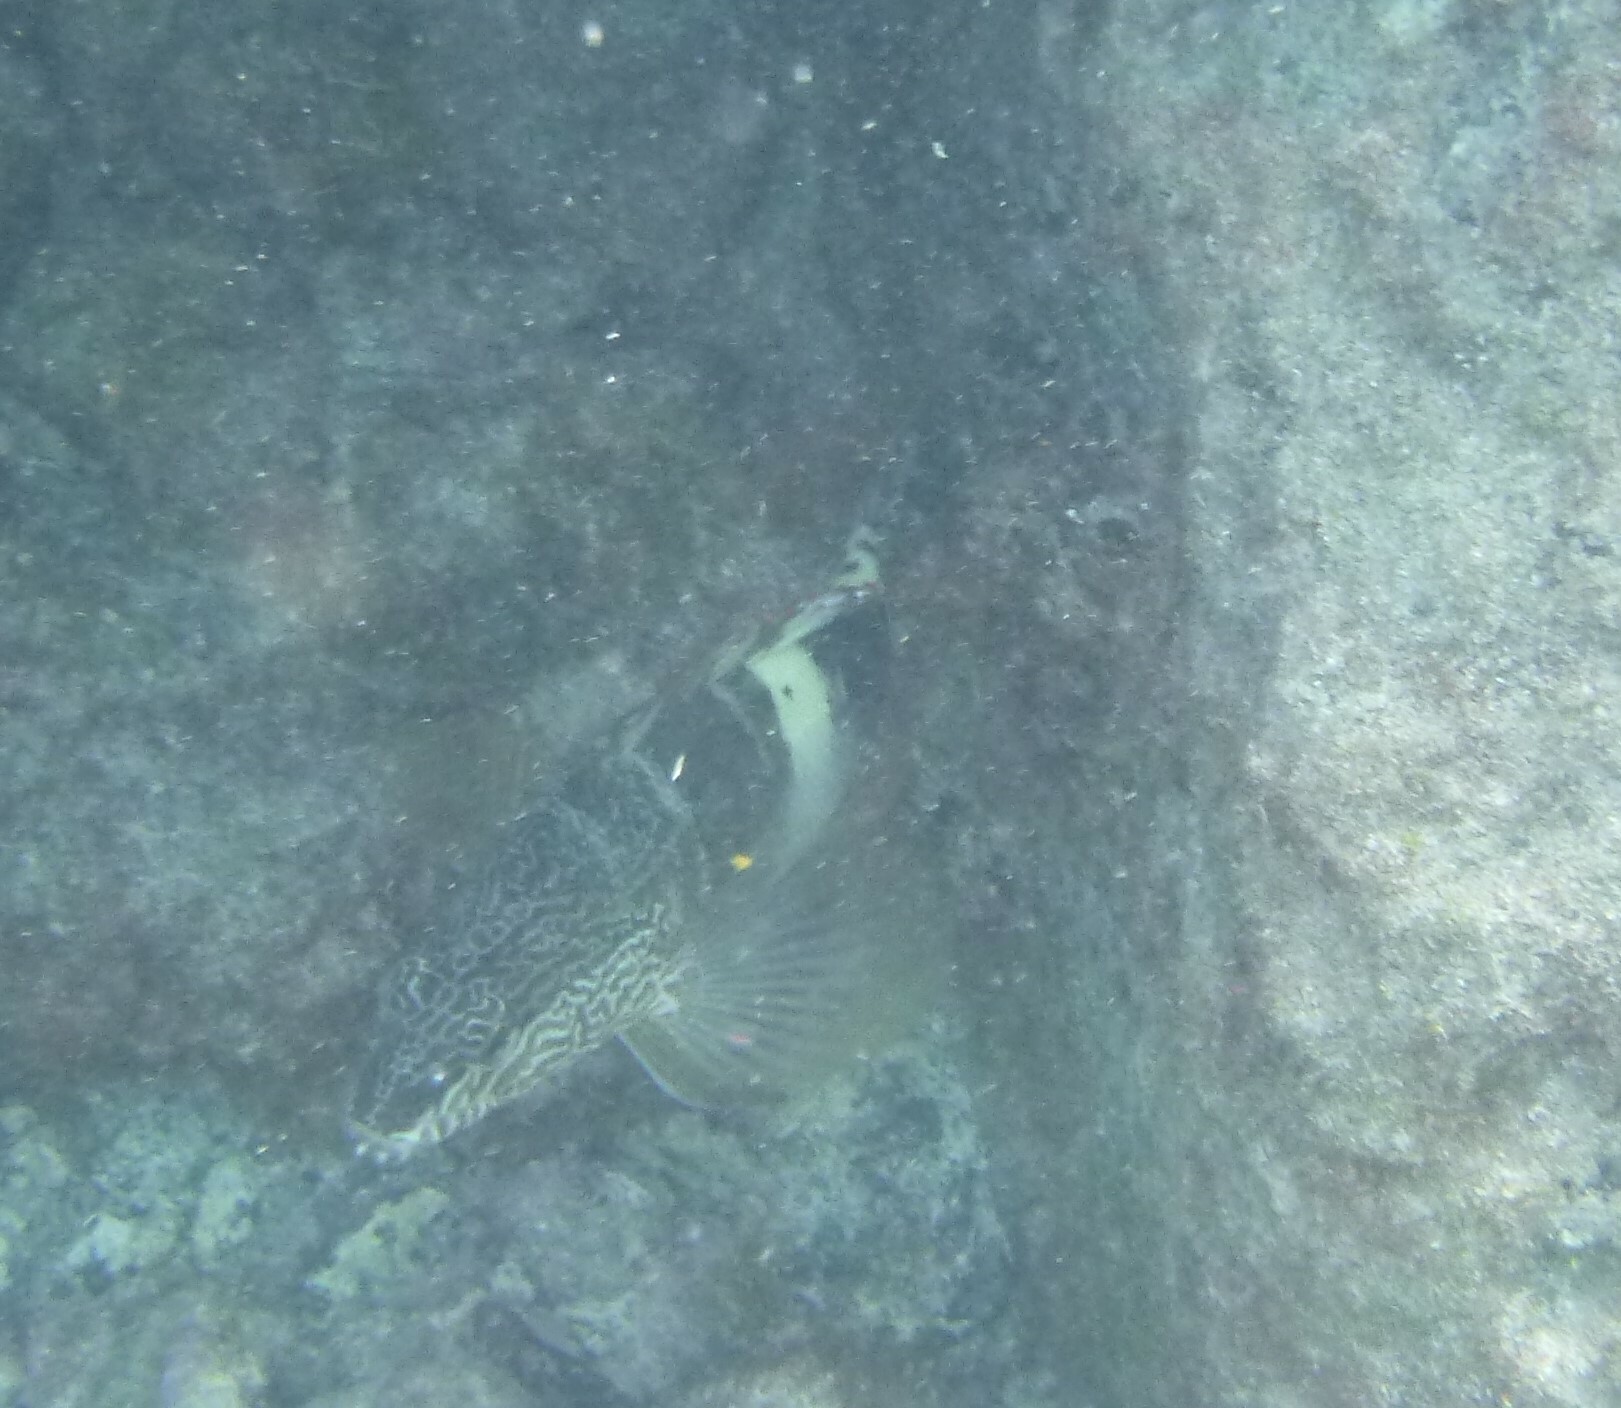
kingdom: Animalia
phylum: Chordata
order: Perciformes
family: Serranidae
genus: Serranus
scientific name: Serranus scriba
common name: Painted comber
